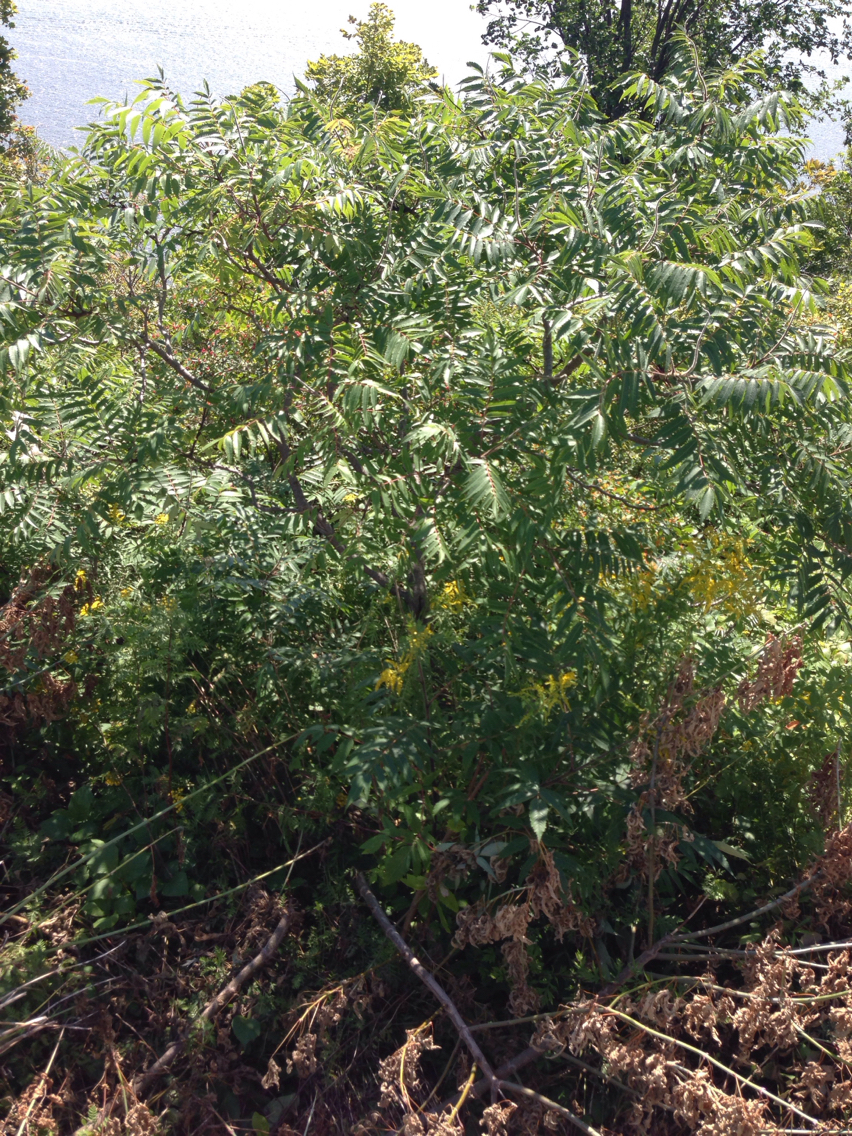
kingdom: Plantae
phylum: Tracheophyta
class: Magnoliopsida
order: Sapindales
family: Anacardiaceae
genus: Rhus
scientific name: Rhus typhina
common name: Staghorn sumac
